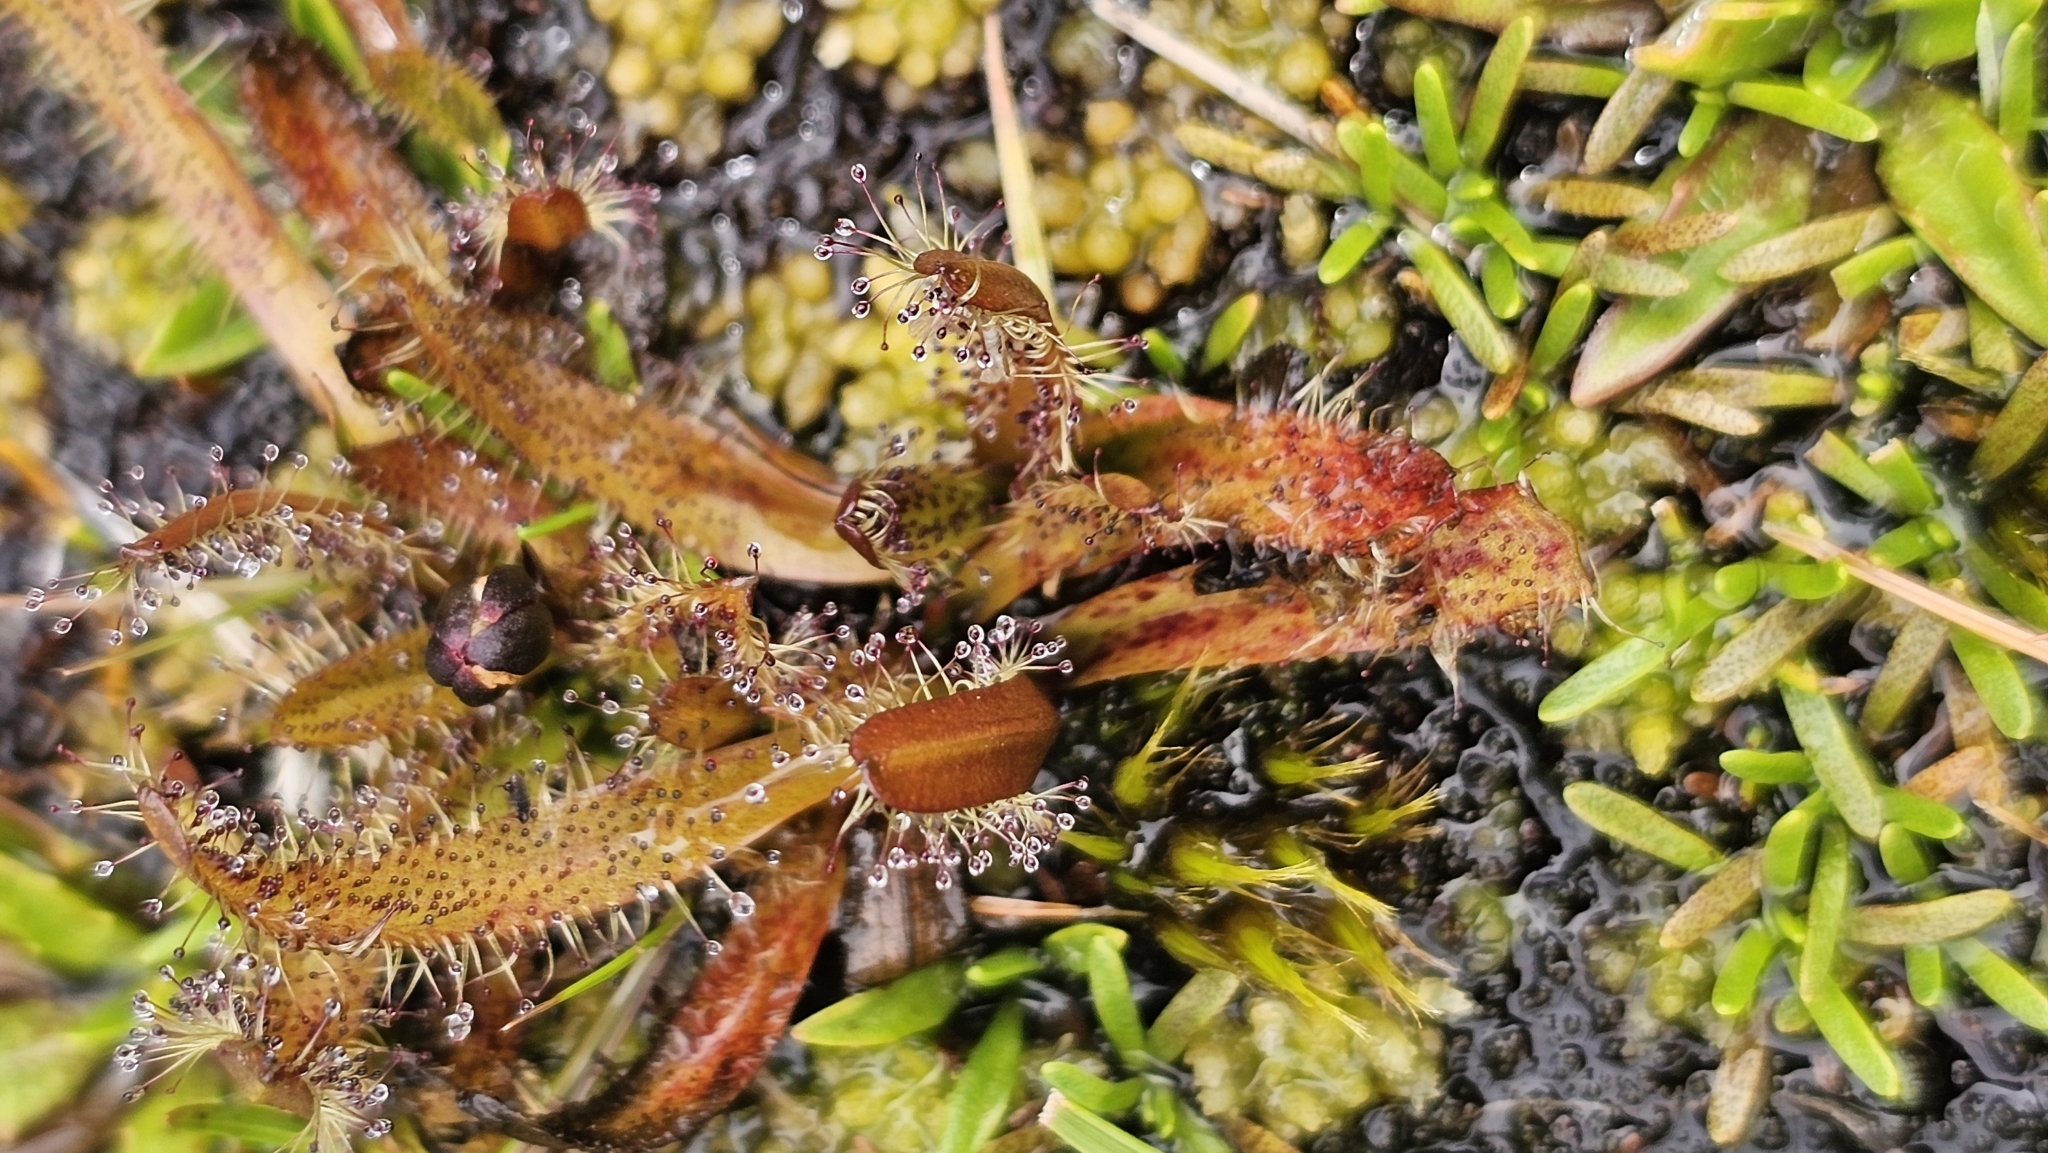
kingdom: Plantae
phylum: Tracheophyta
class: Magnoliopsida
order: Caryophyllales
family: Droseraceae
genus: Drosera
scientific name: Drosera arcturi
